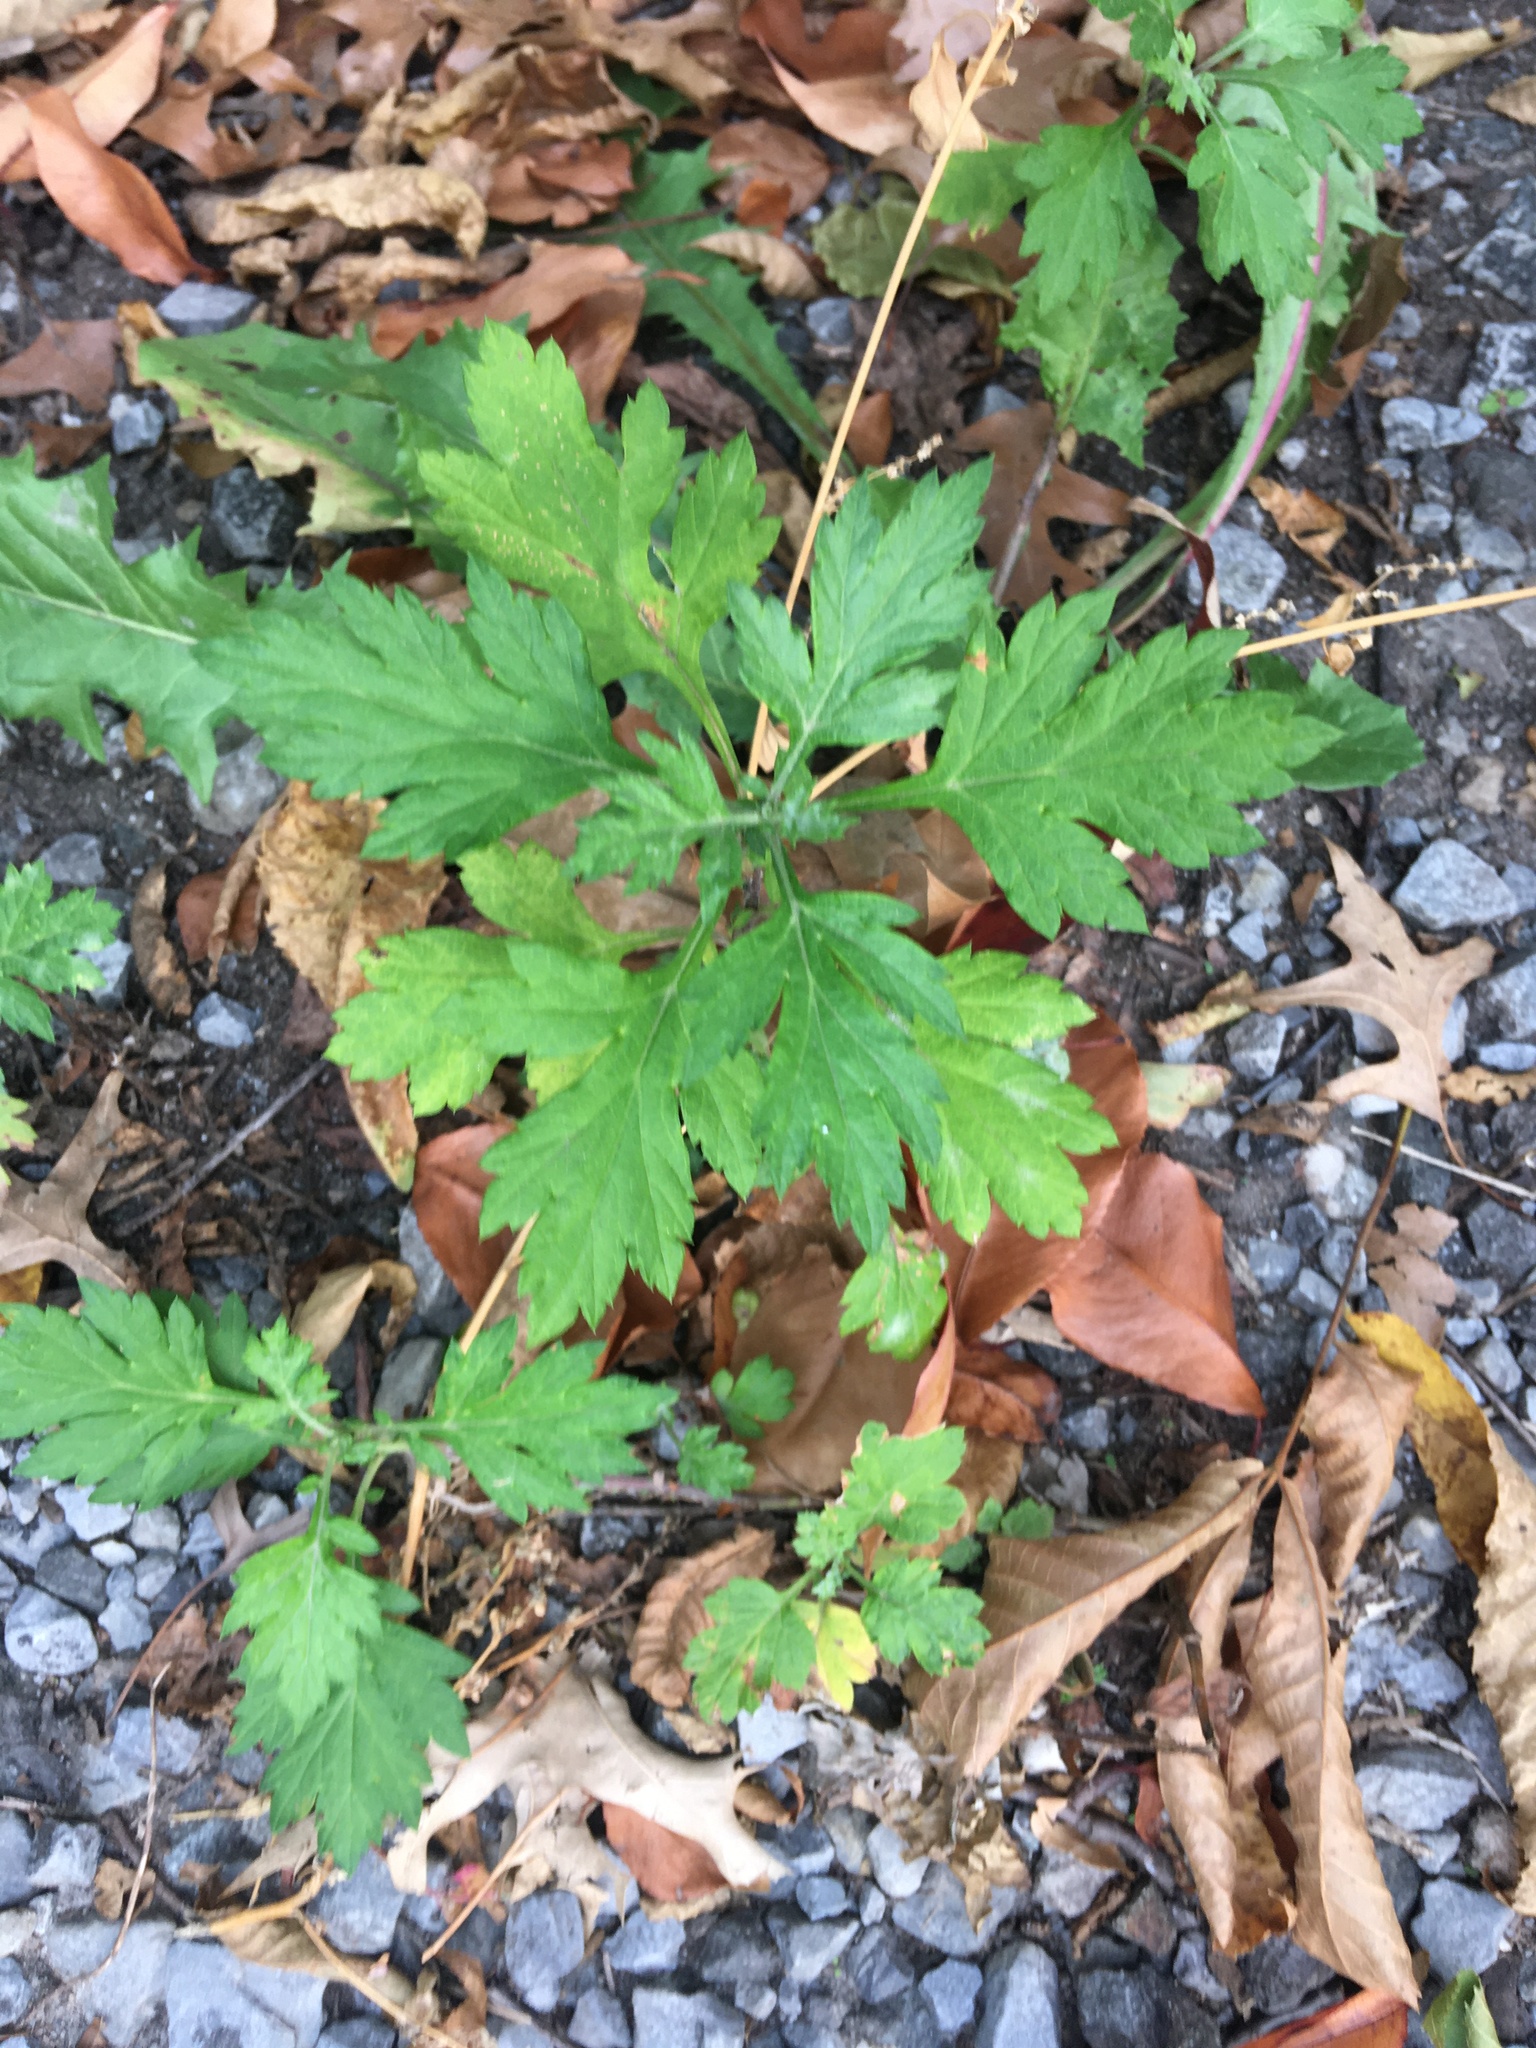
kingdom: Plantae
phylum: Tracheophyta
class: Magnoliopsida
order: Asterales
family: Asteraceae
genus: Artemisia
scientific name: Artemisia vulgaris
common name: Mugwort
